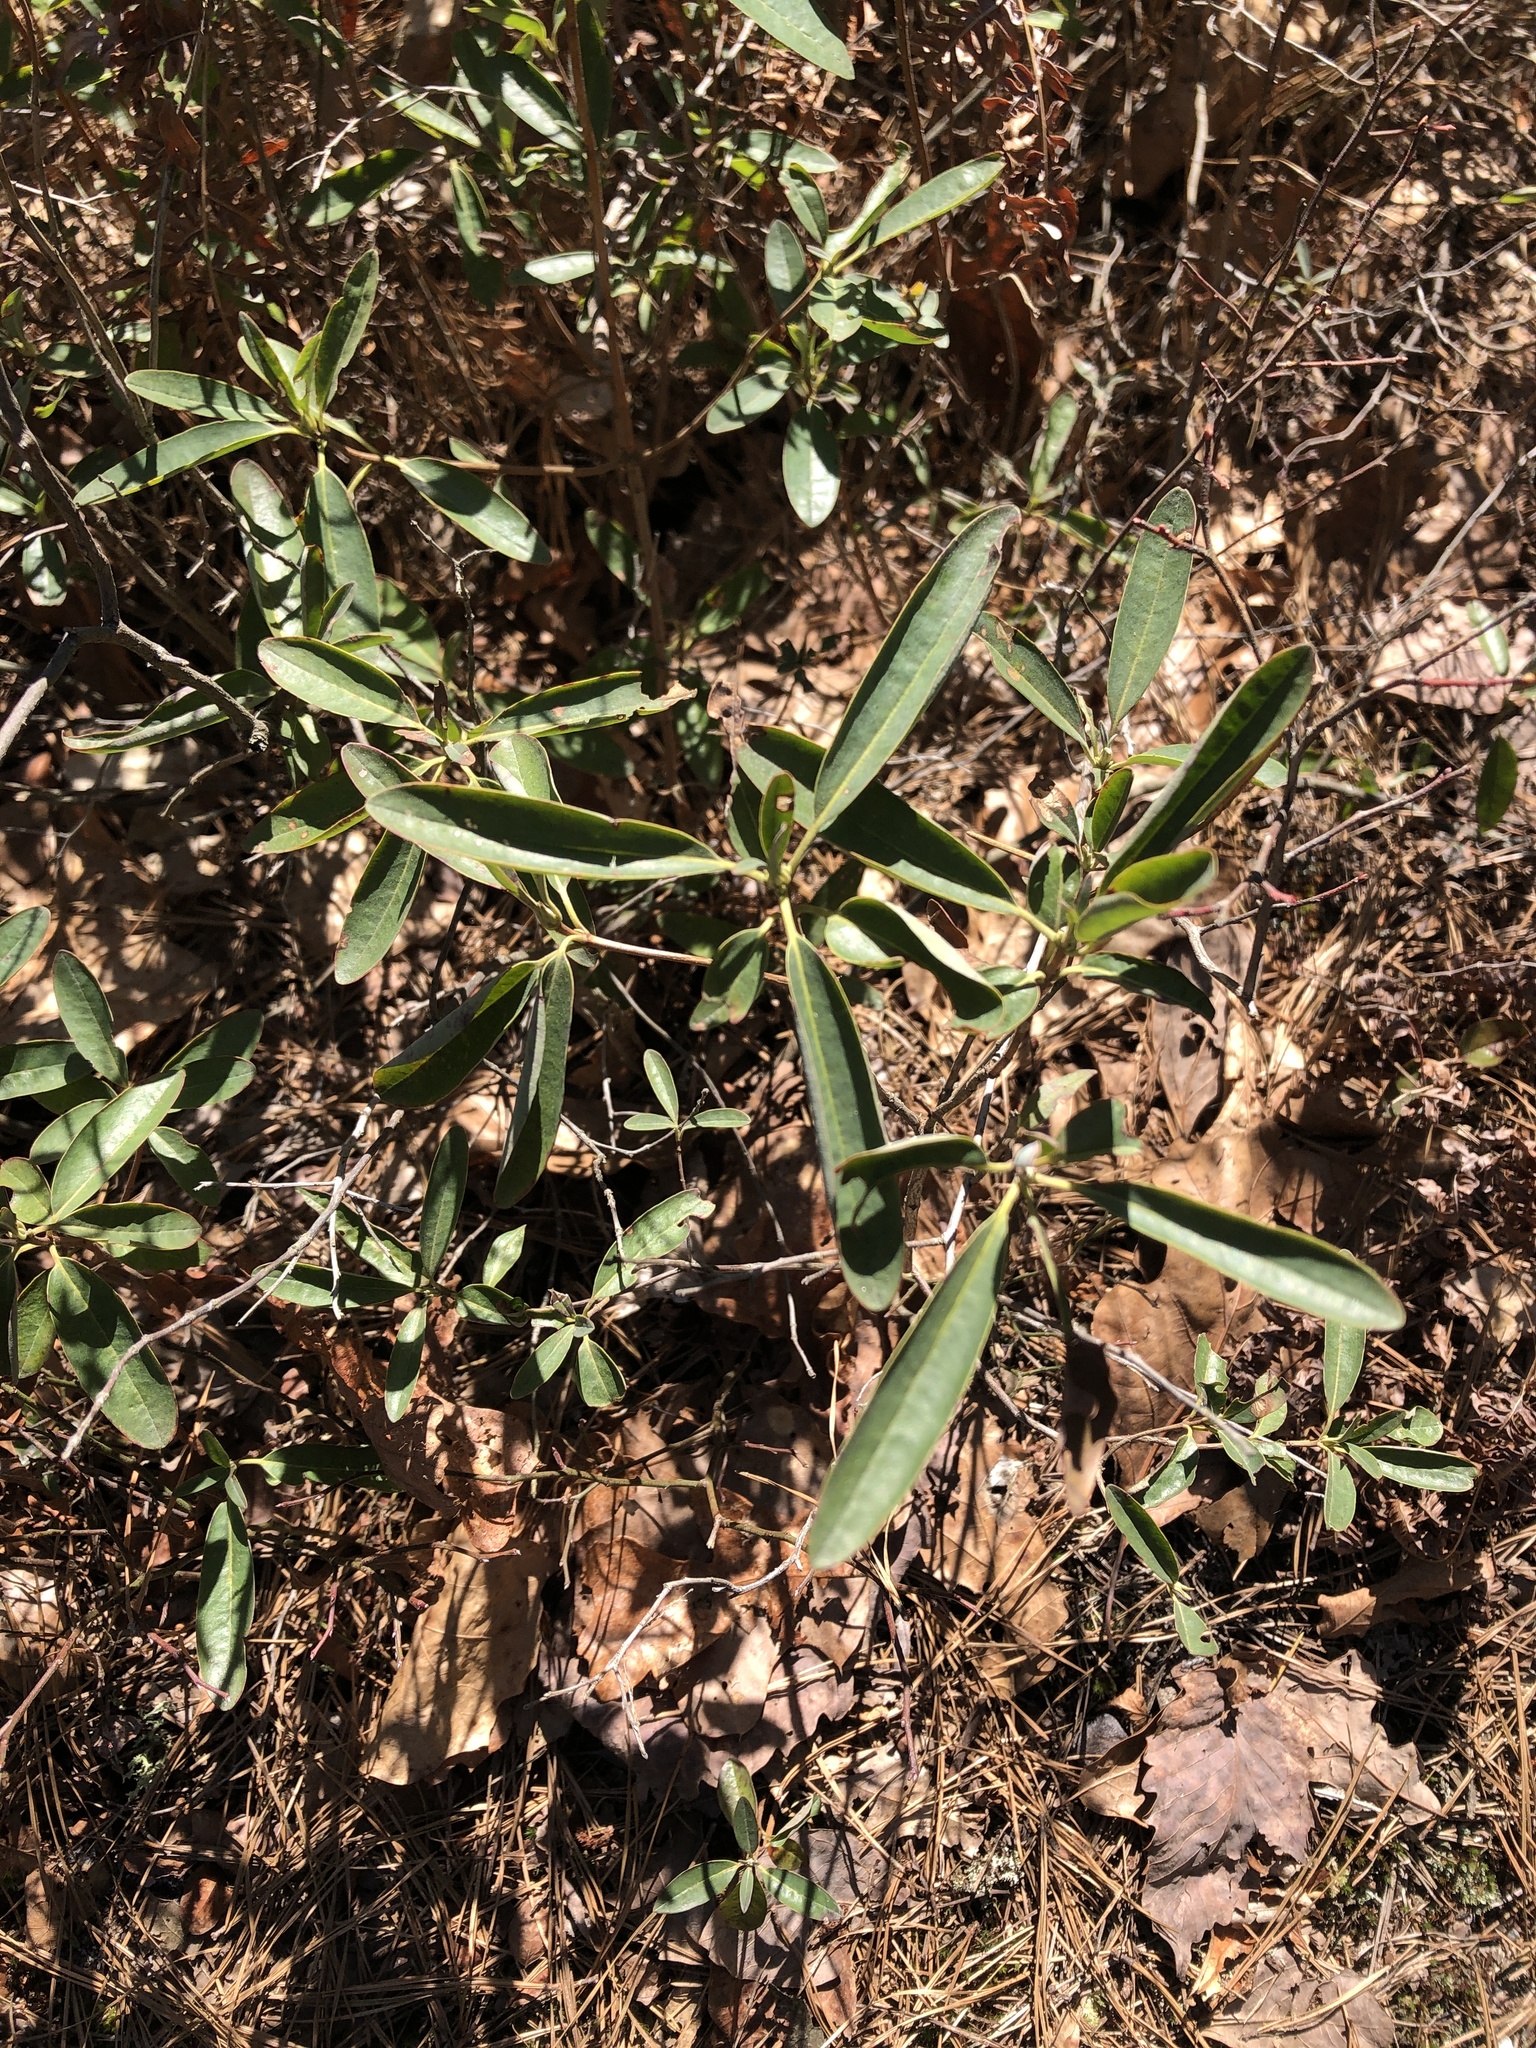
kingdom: Plantae
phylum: Tracheophyta
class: Magnoliopsida
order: Ericales
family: Ericaceae
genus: Kalmia
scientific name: Kalmia angustifolia
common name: Sheep-laurel
